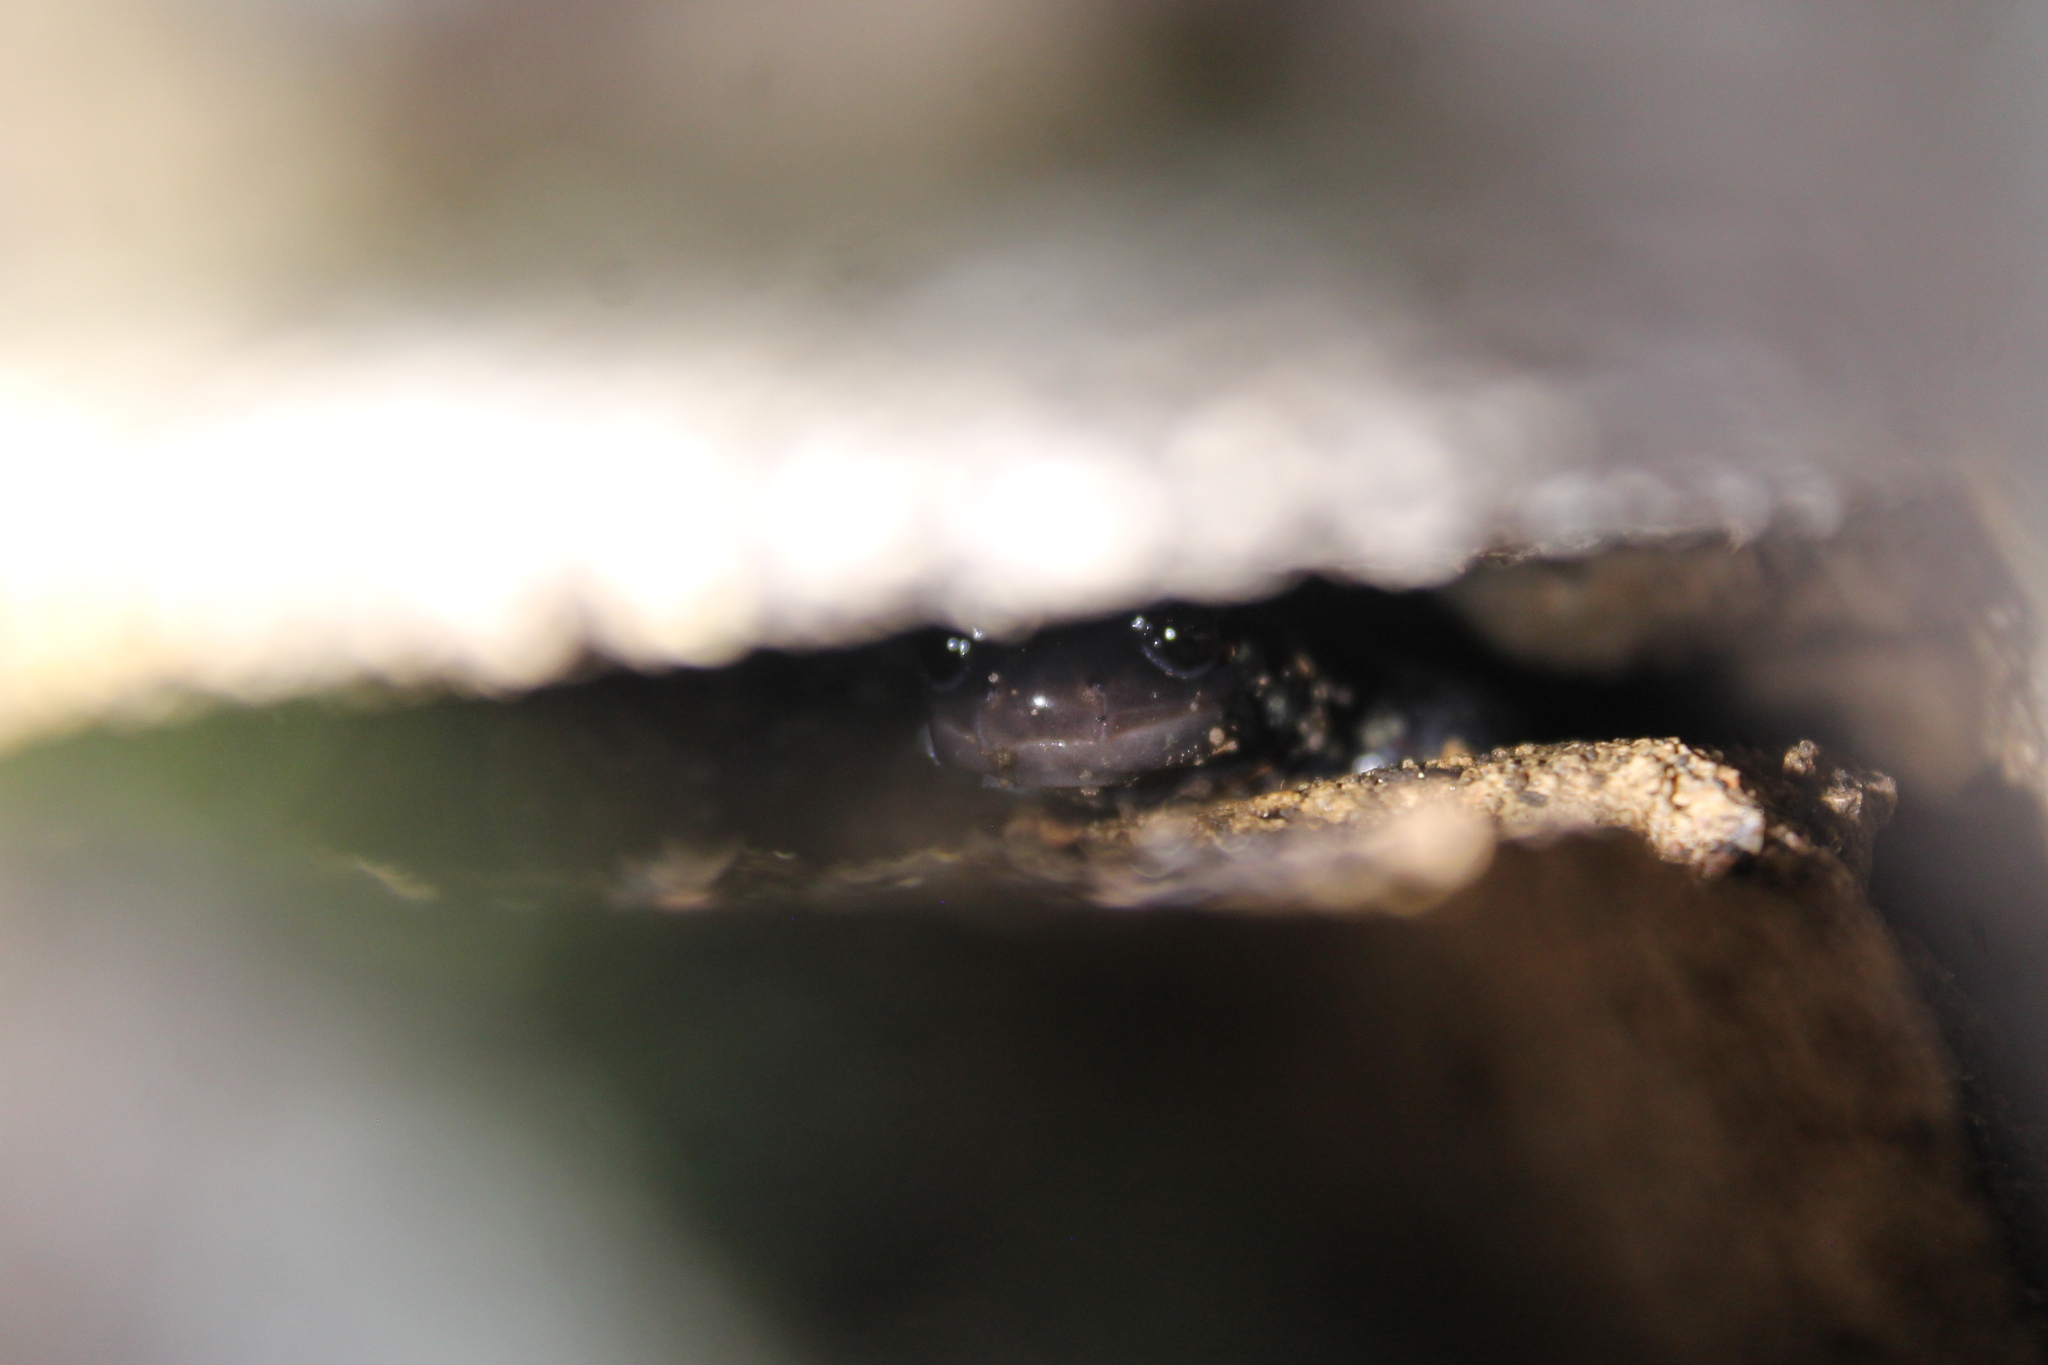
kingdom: Animalia
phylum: Chordata
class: Amphibia
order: Caudata
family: Plethodontidae
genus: Plethodon
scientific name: Plethodon glutinosus
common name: Northern slimy salamander
